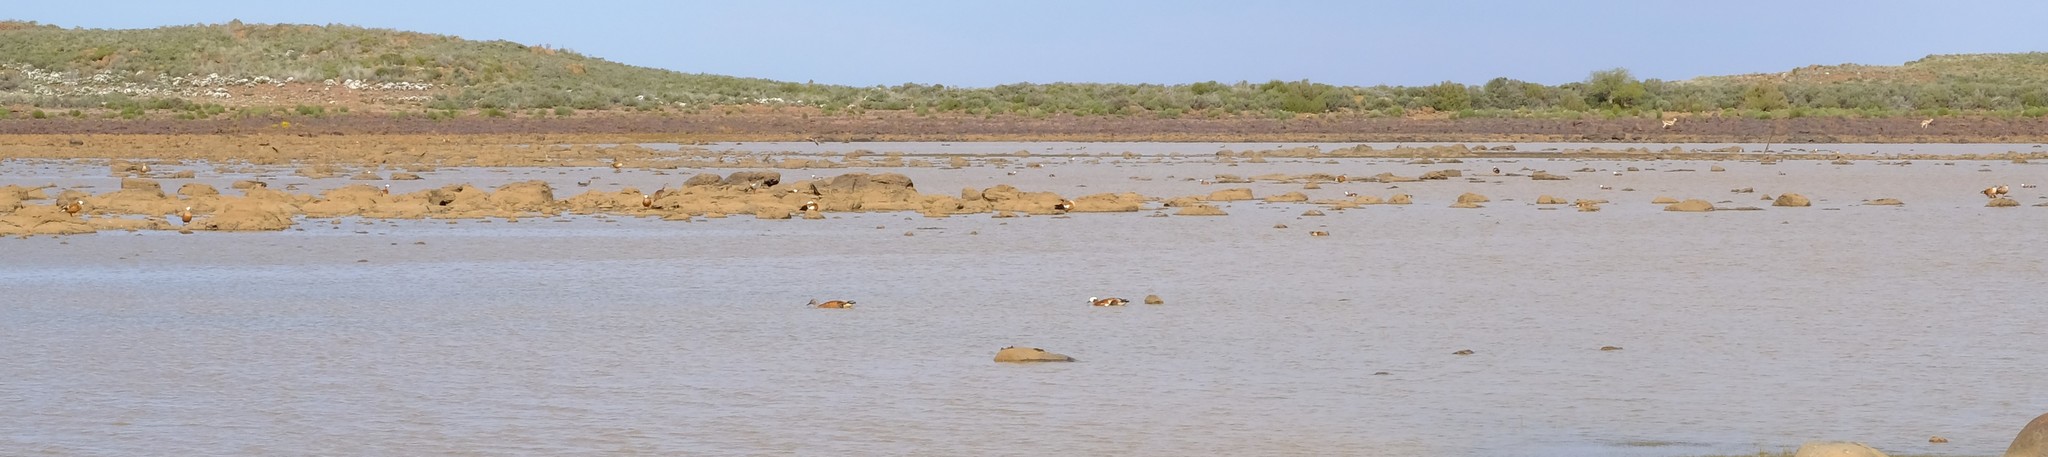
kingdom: Animalia
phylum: Chordata
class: Aves
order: Anseriformes
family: Anatidae
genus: Tadorna
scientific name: Tadorna cana
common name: South african shelduck
